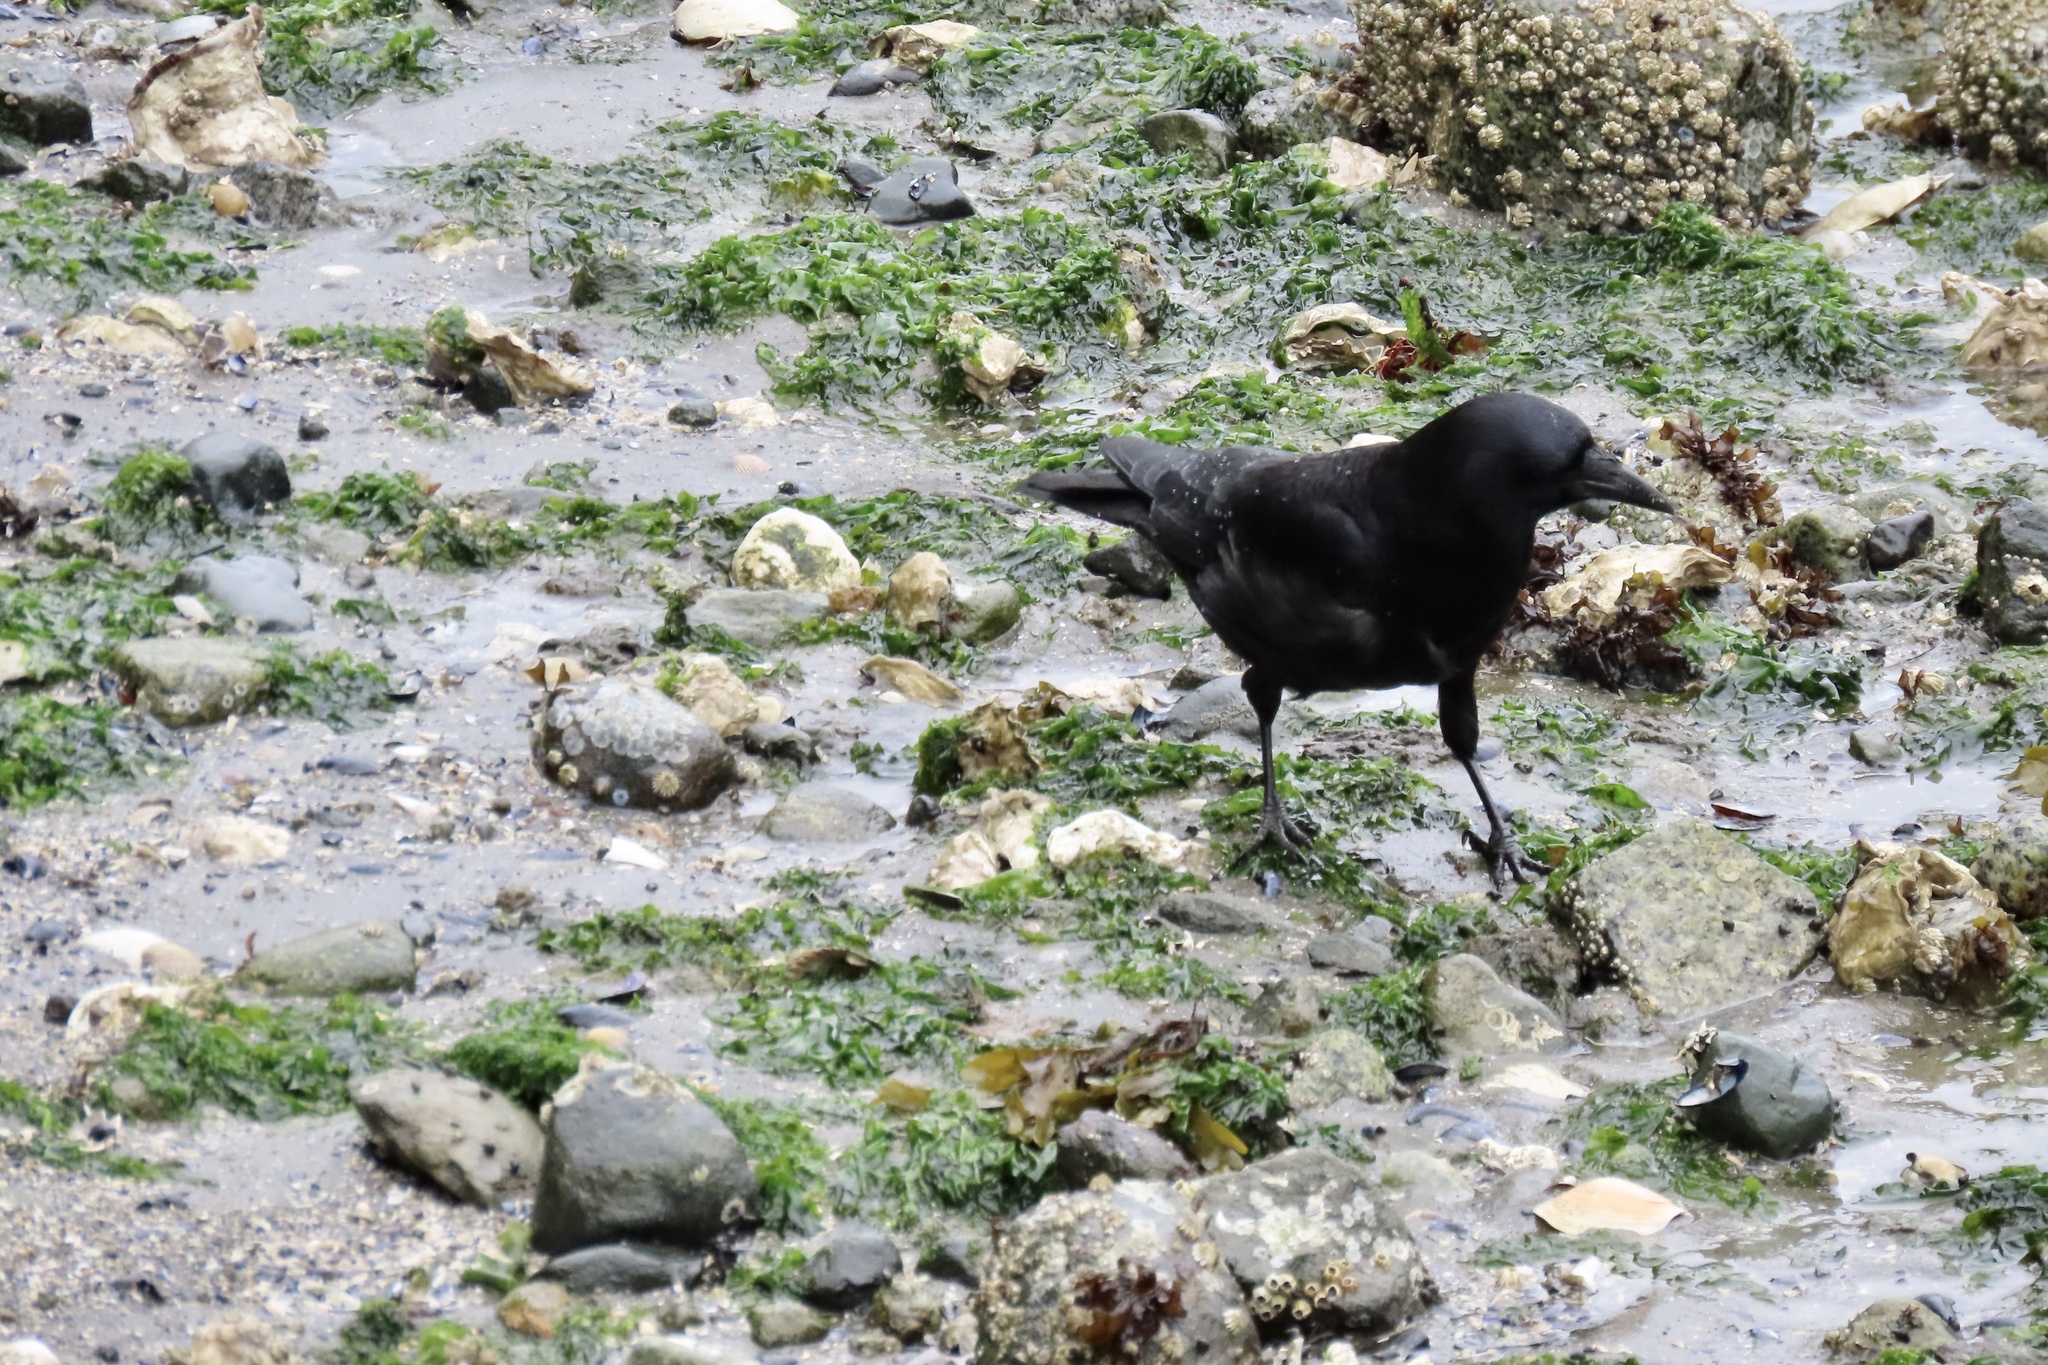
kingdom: Animalia
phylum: Chordata
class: Aves
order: Passeriformes
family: Corvidae
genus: Corvus
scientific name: Corvus brachyrhynchos
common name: American crow
